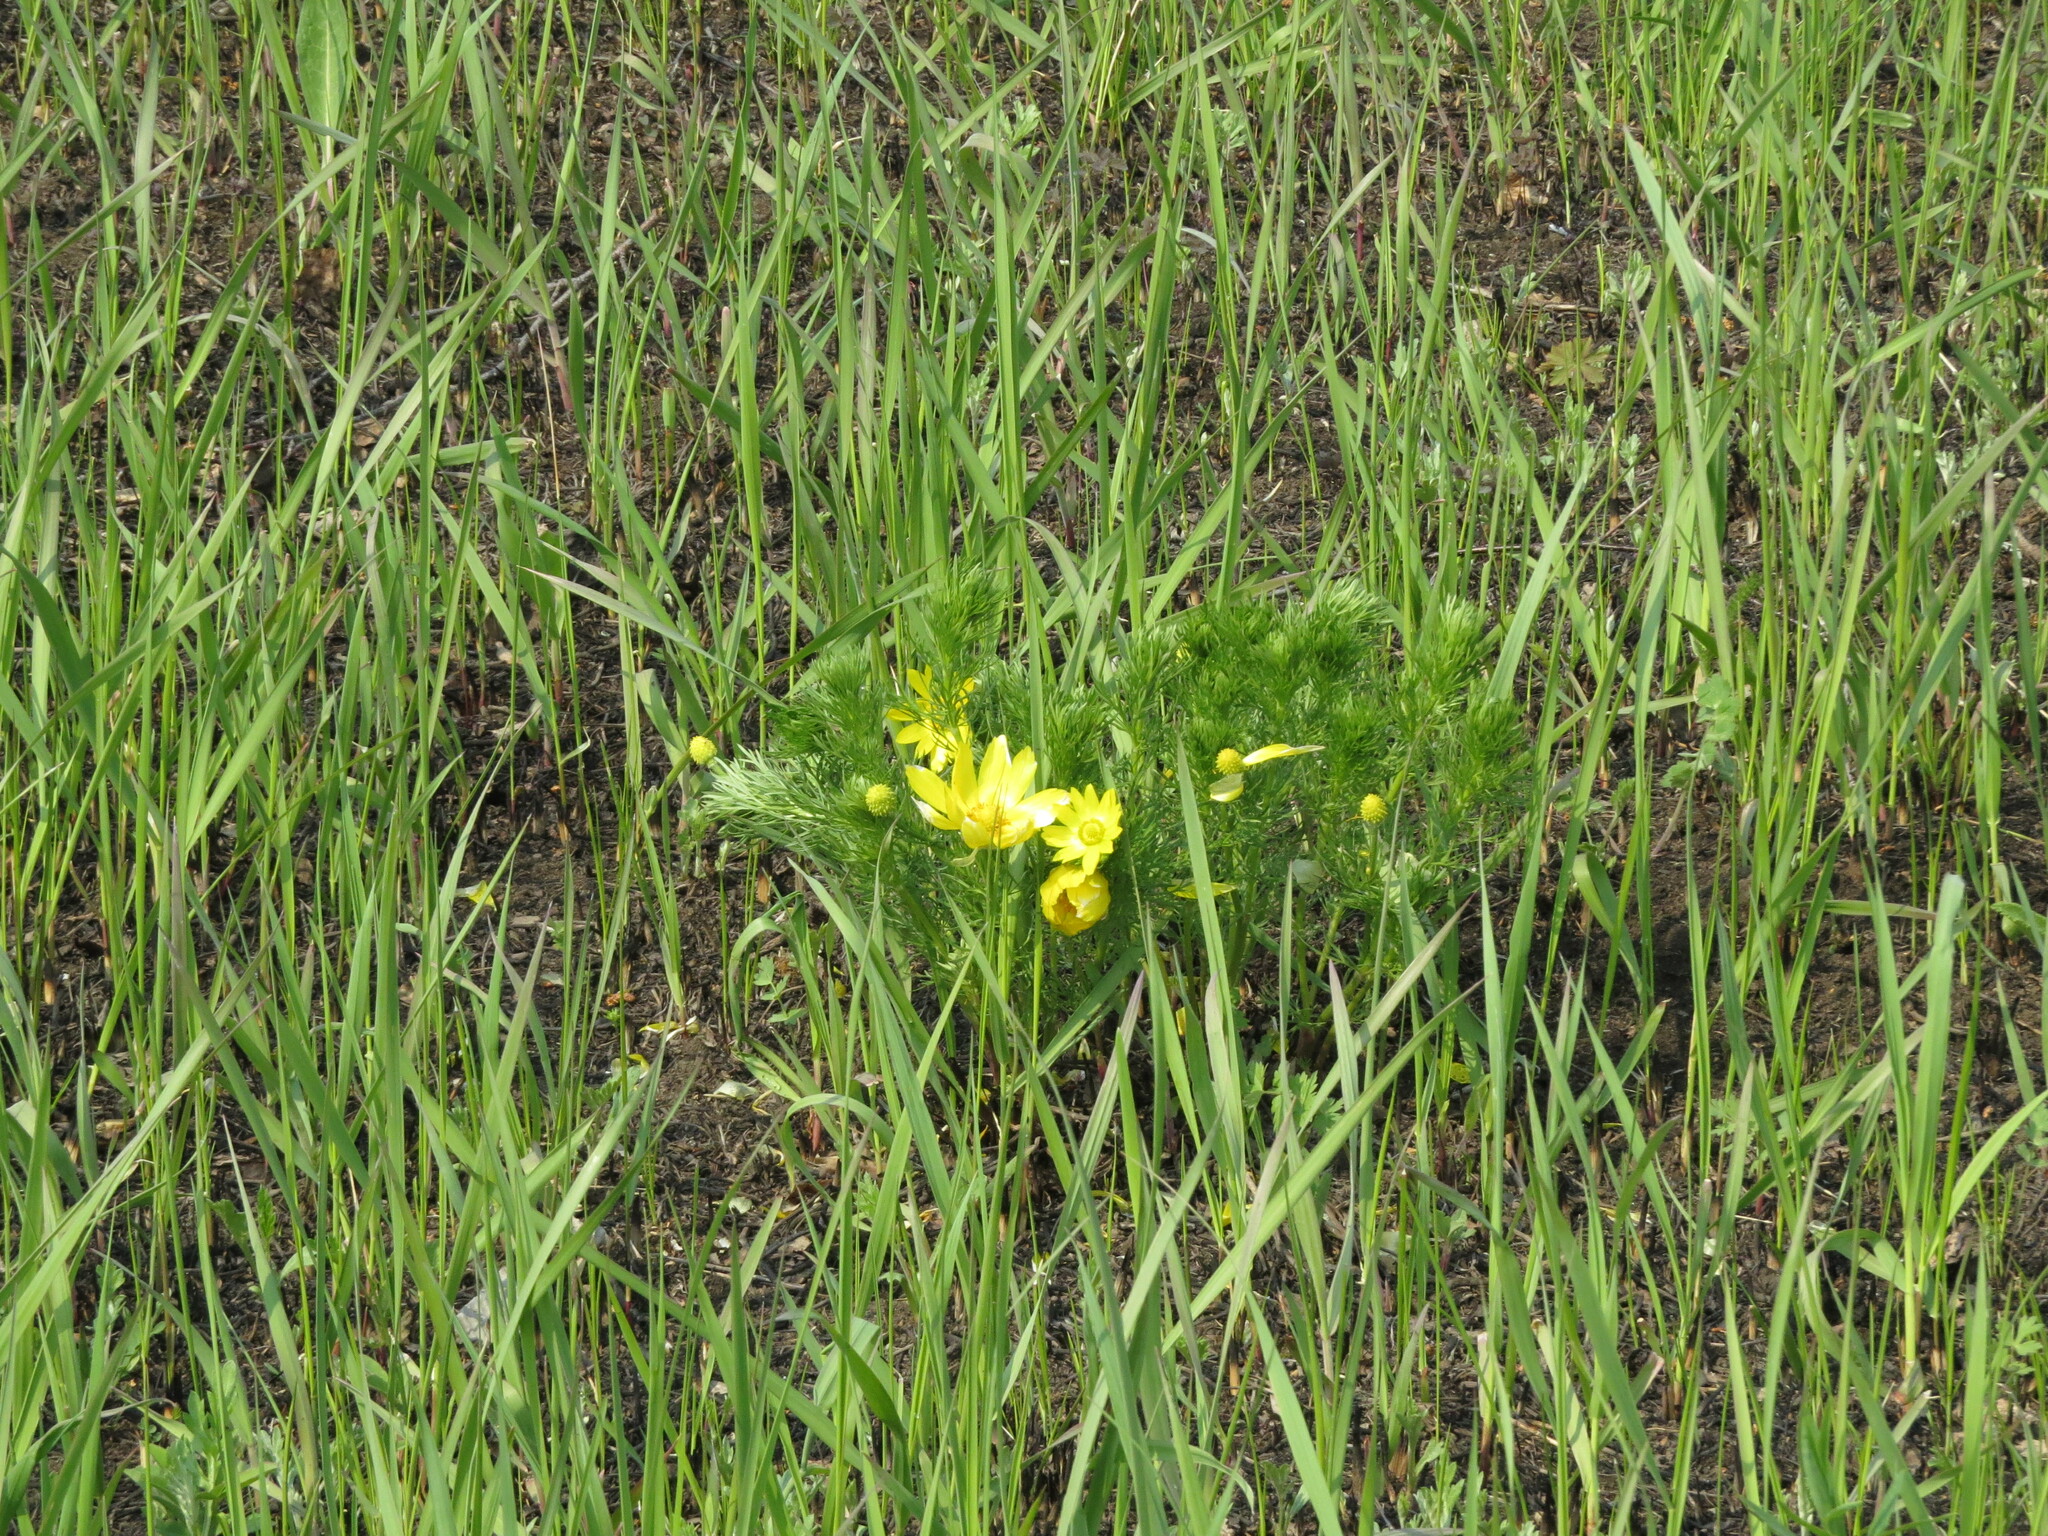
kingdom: Plantae
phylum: Tracheophyta
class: Magnoliopsida
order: Ranunculales
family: Ranunculaceae
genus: Adonis
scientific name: Adonis vernalis
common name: Yellow pheasants-eye
